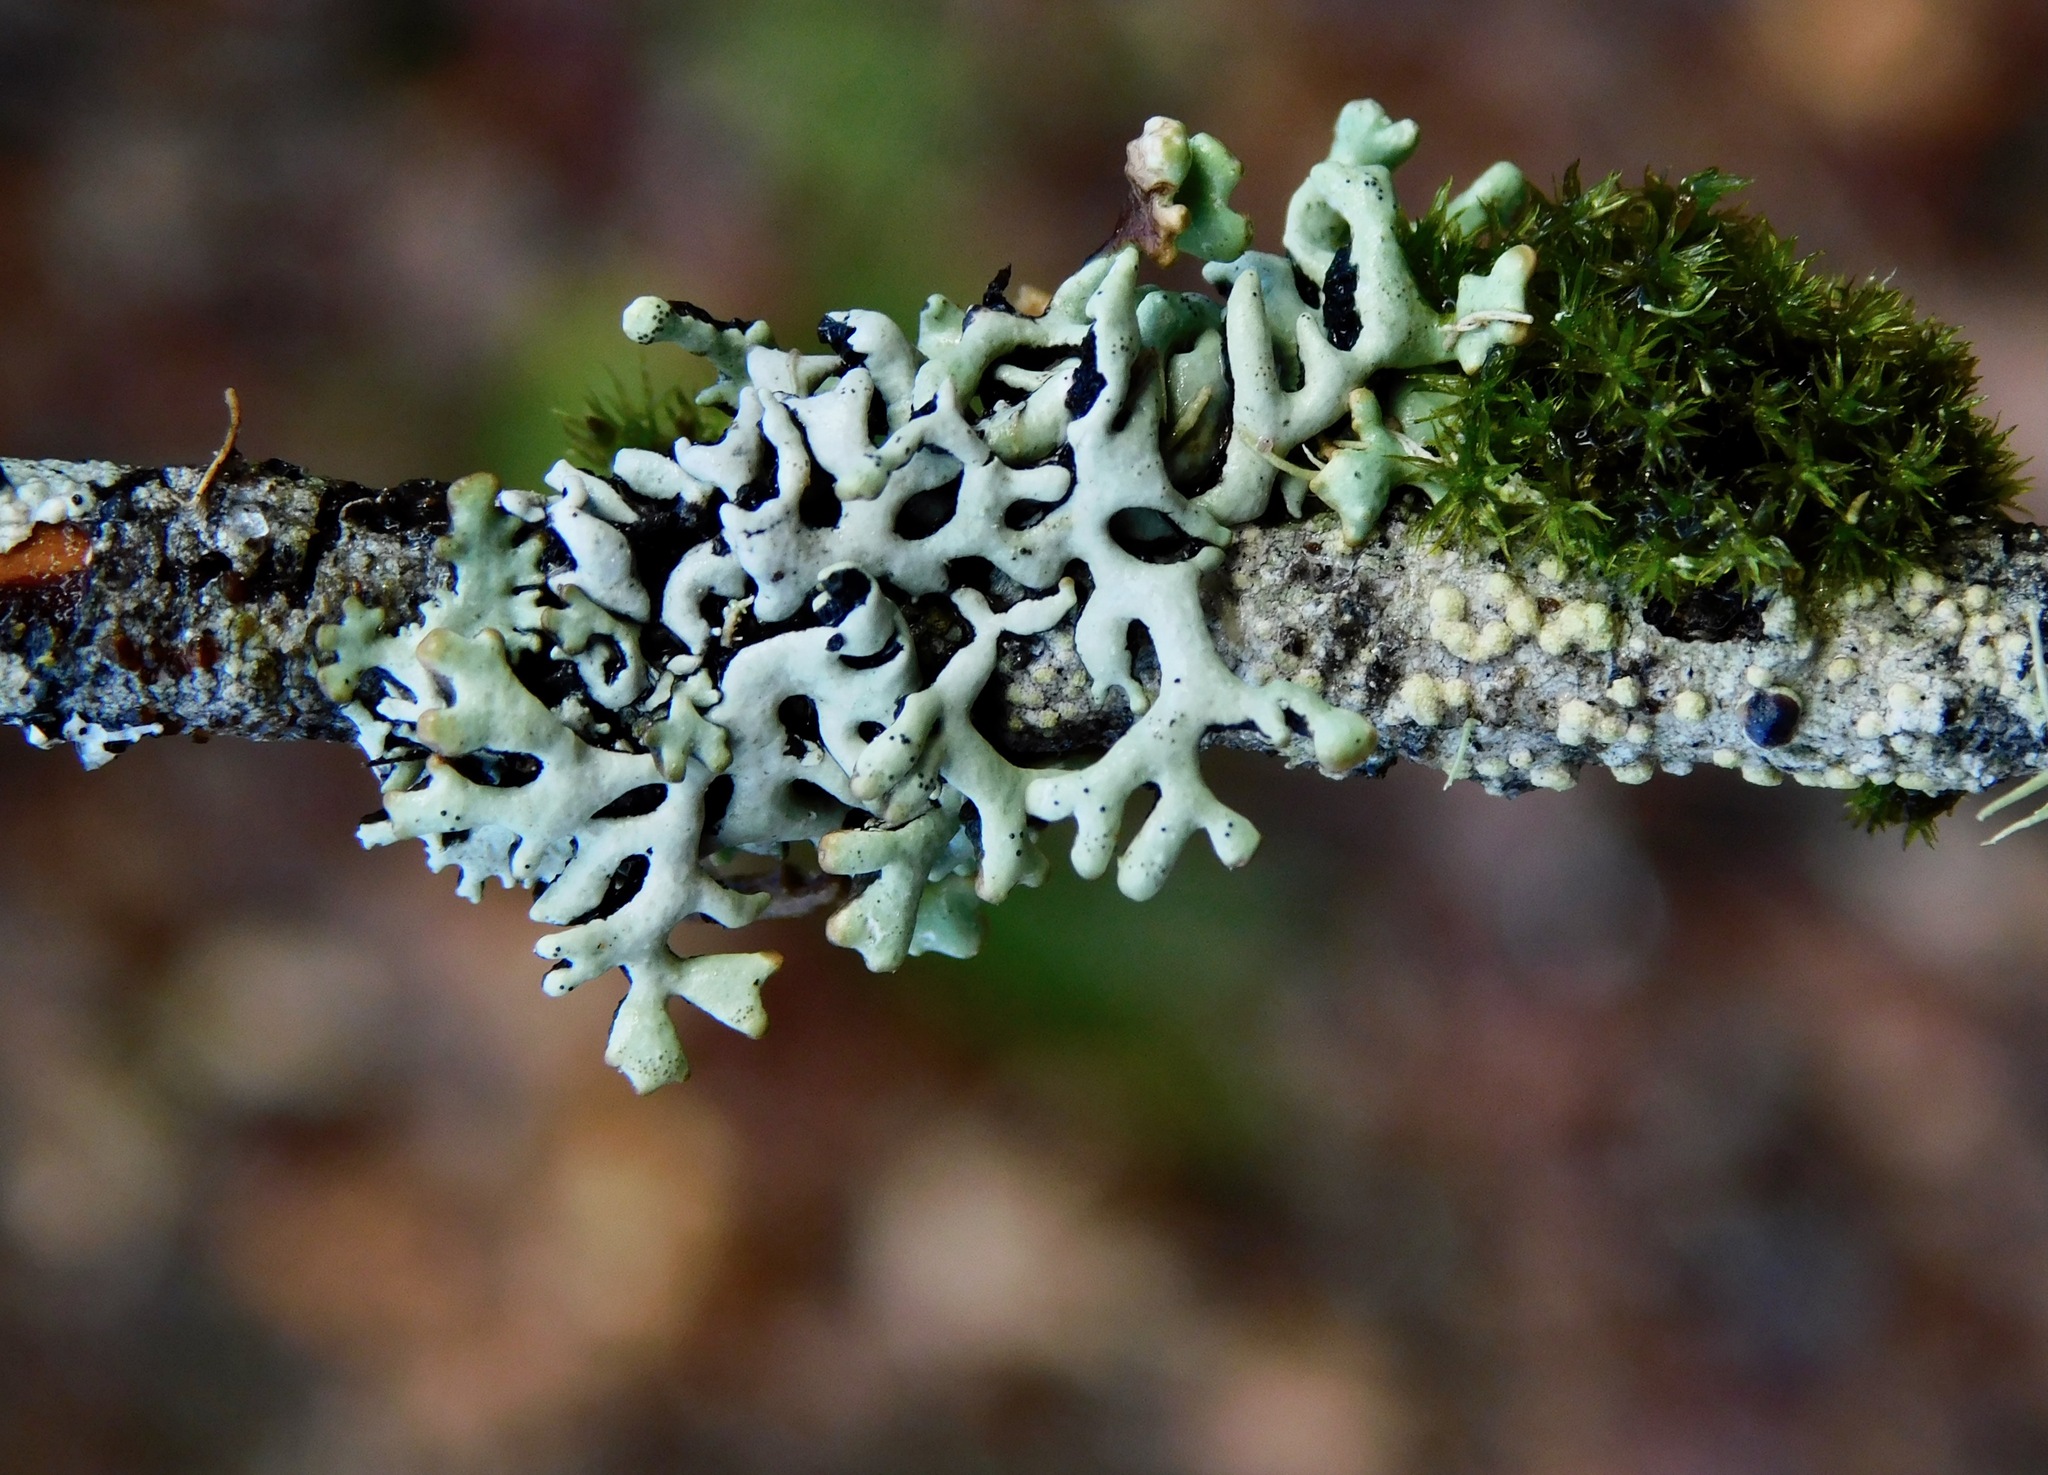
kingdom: Fungi
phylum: Ascomycota
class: Lecanoromycetes
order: Lecanorales
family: Parmeliaceae
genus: Hypogymnia
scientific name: Hypogymnia krogiae
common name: Freckled tube lichen
